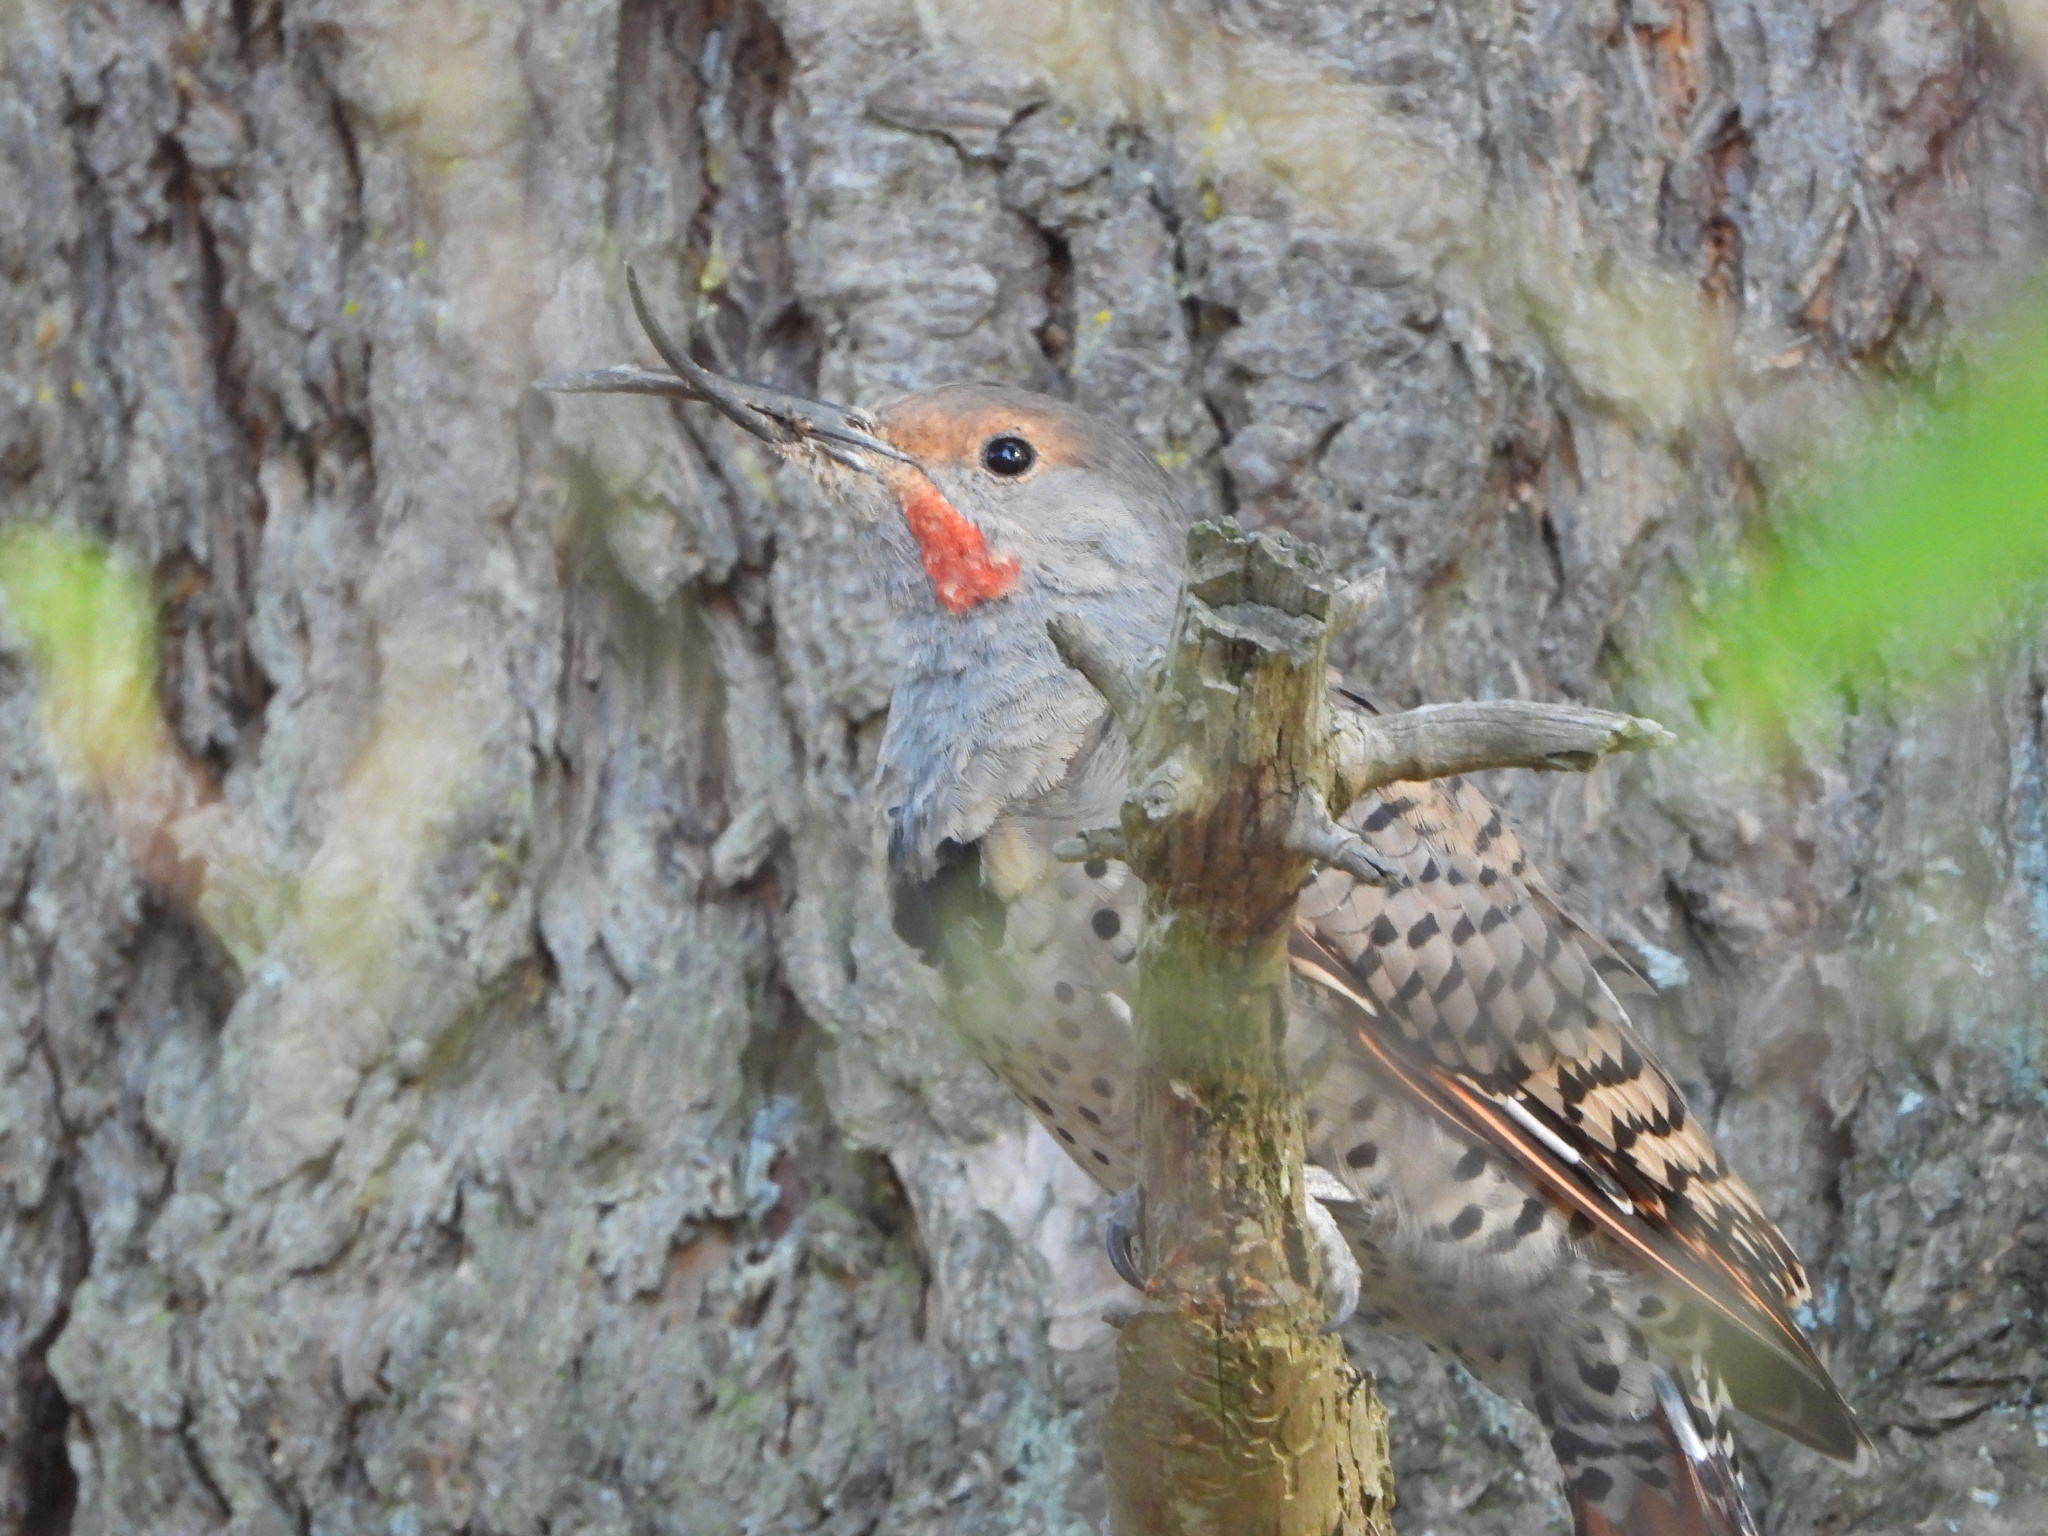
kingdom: Animalia
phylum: Chordata
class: Aves
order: Piciformes
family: Picidae
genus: Colaptes
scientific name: Colaptes auratus
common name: Northern flicker
